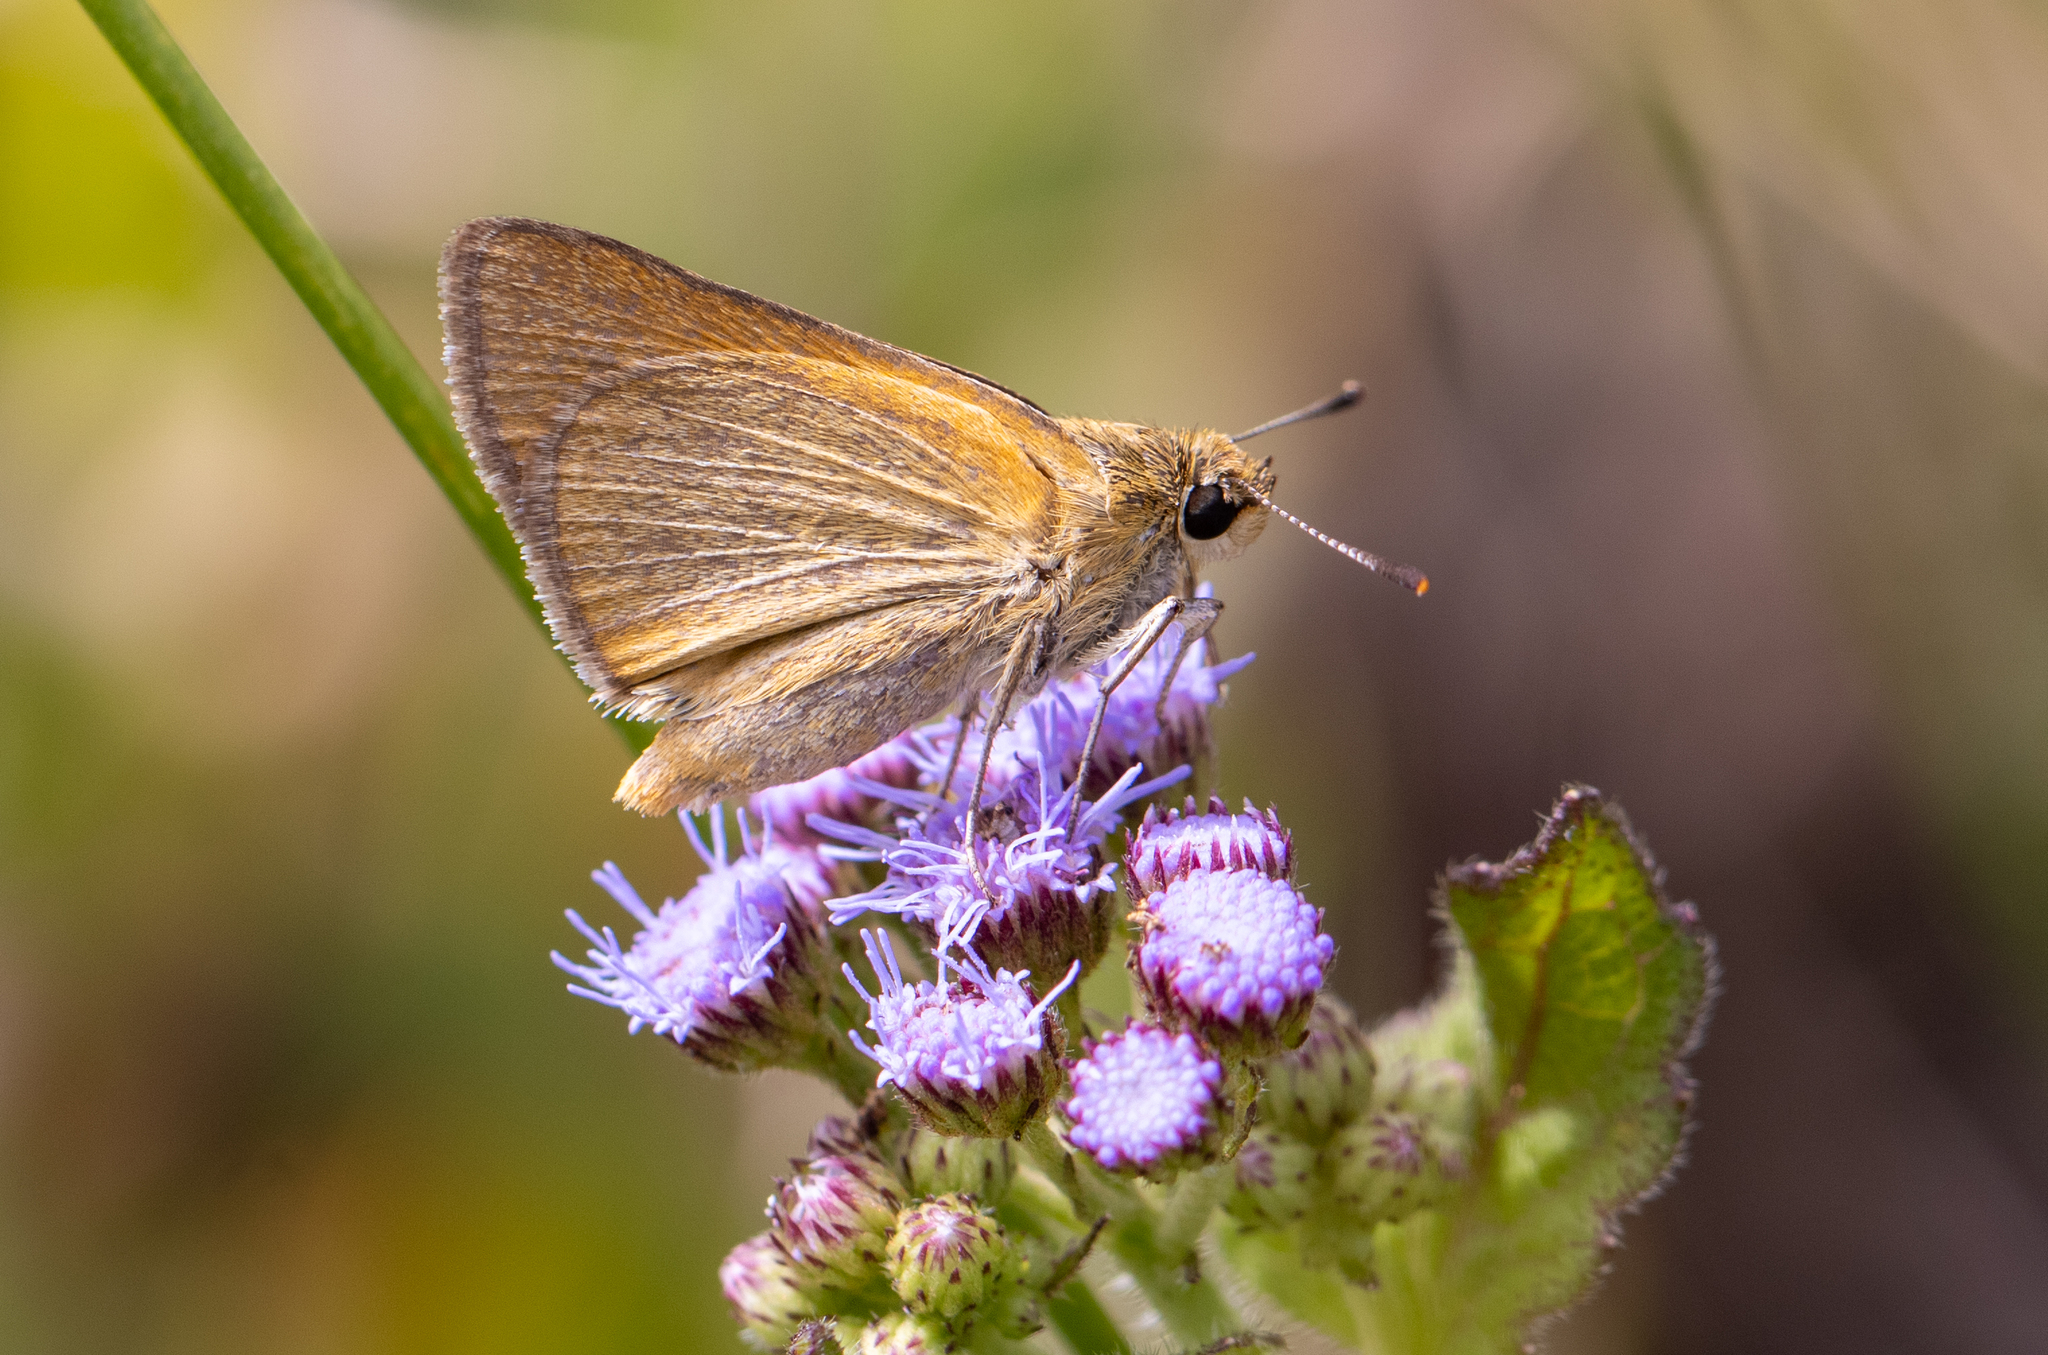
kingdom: Animalia
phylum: Arthropoda
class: Insecta
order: Lepidoptera
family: Hesperiidae
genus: Atrytone
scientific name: Atrytone arogos
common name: Arogos skipper
